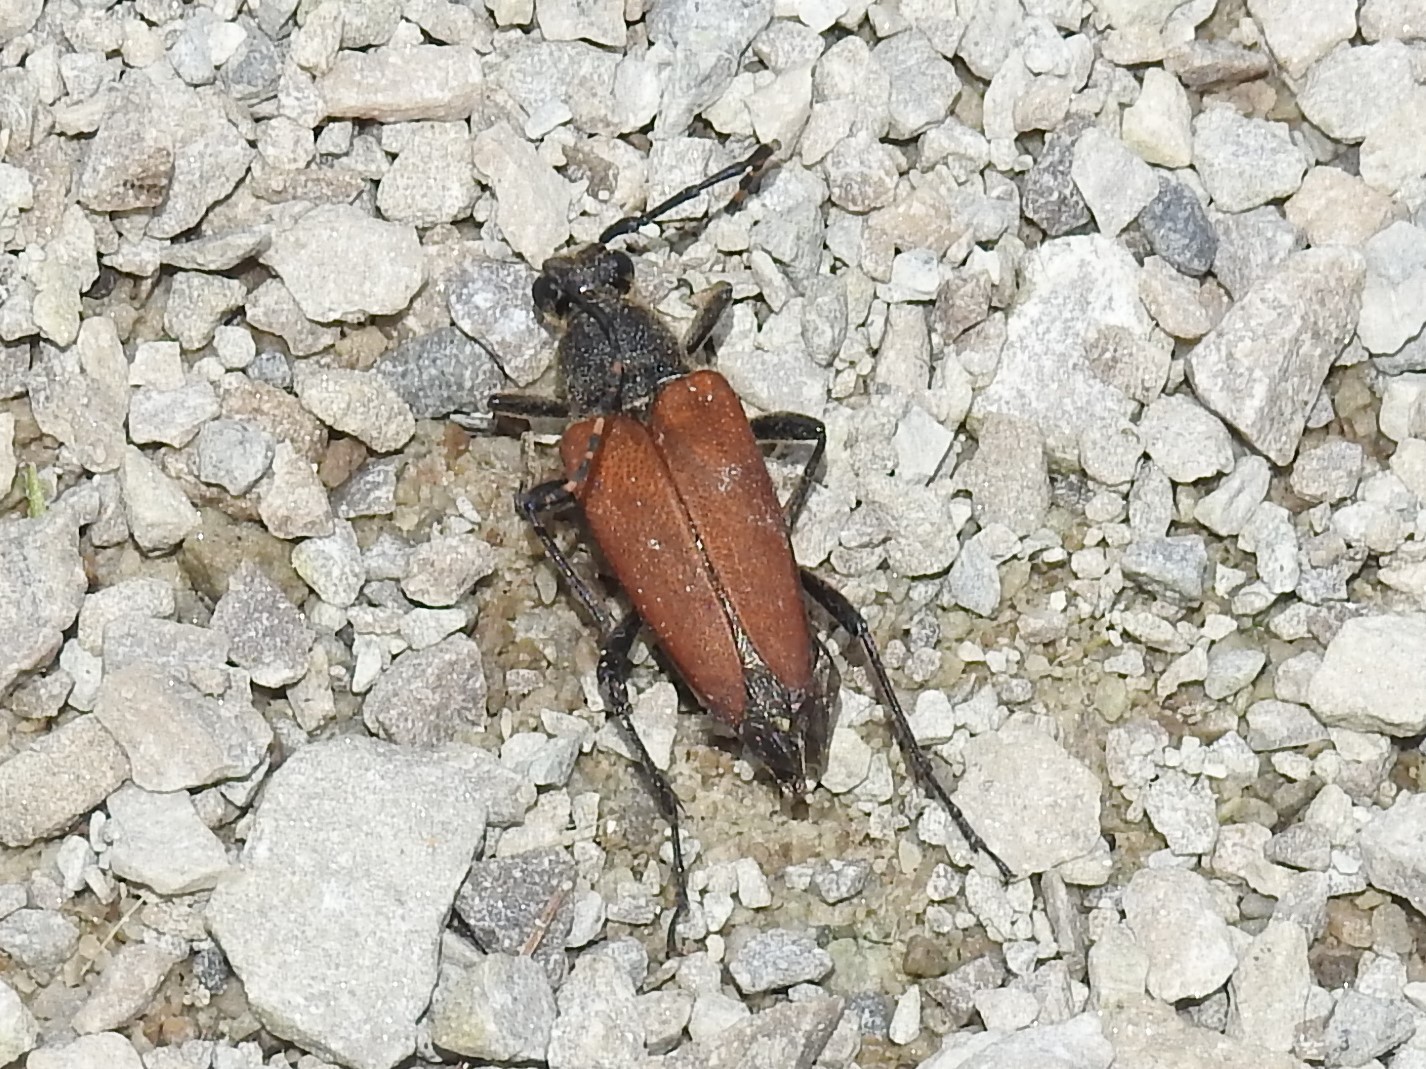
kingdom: Animalia
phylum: Arthropoda
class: Insecta
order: Coleoptera
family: Cerambycidae
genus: Brachyleptura
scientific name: Brachyleptura rubrica
